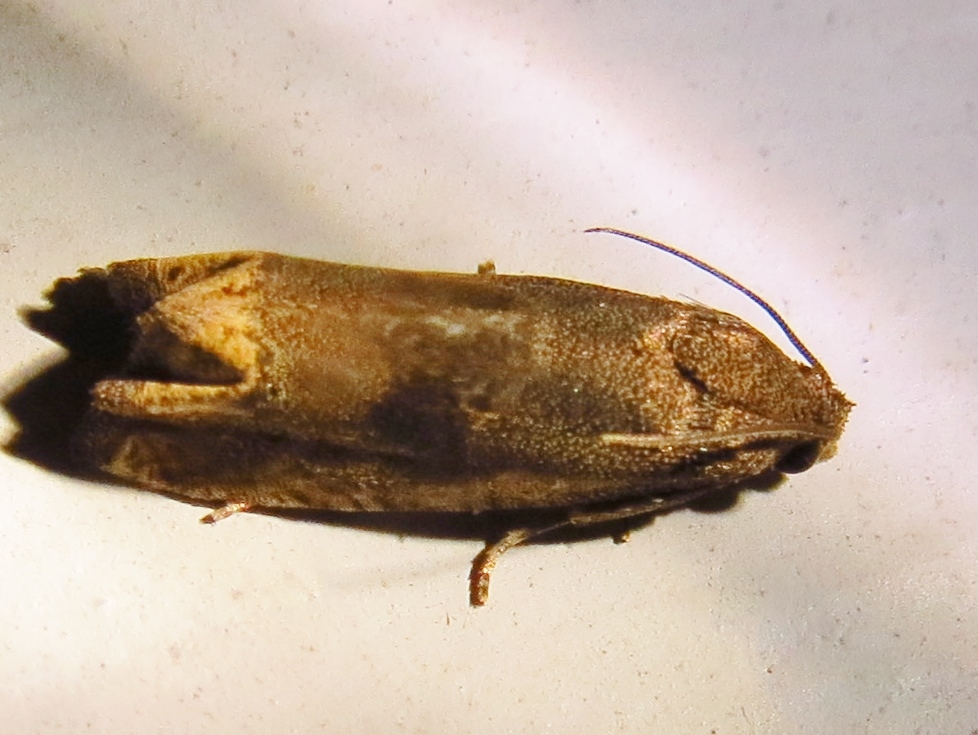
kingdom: Animalia
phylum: Arthropoda
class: Insecta
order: Lepidoptera
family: Tortricidae
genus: Epiblema
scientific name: Epiblema strenuana
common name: Ragweed borer moth
